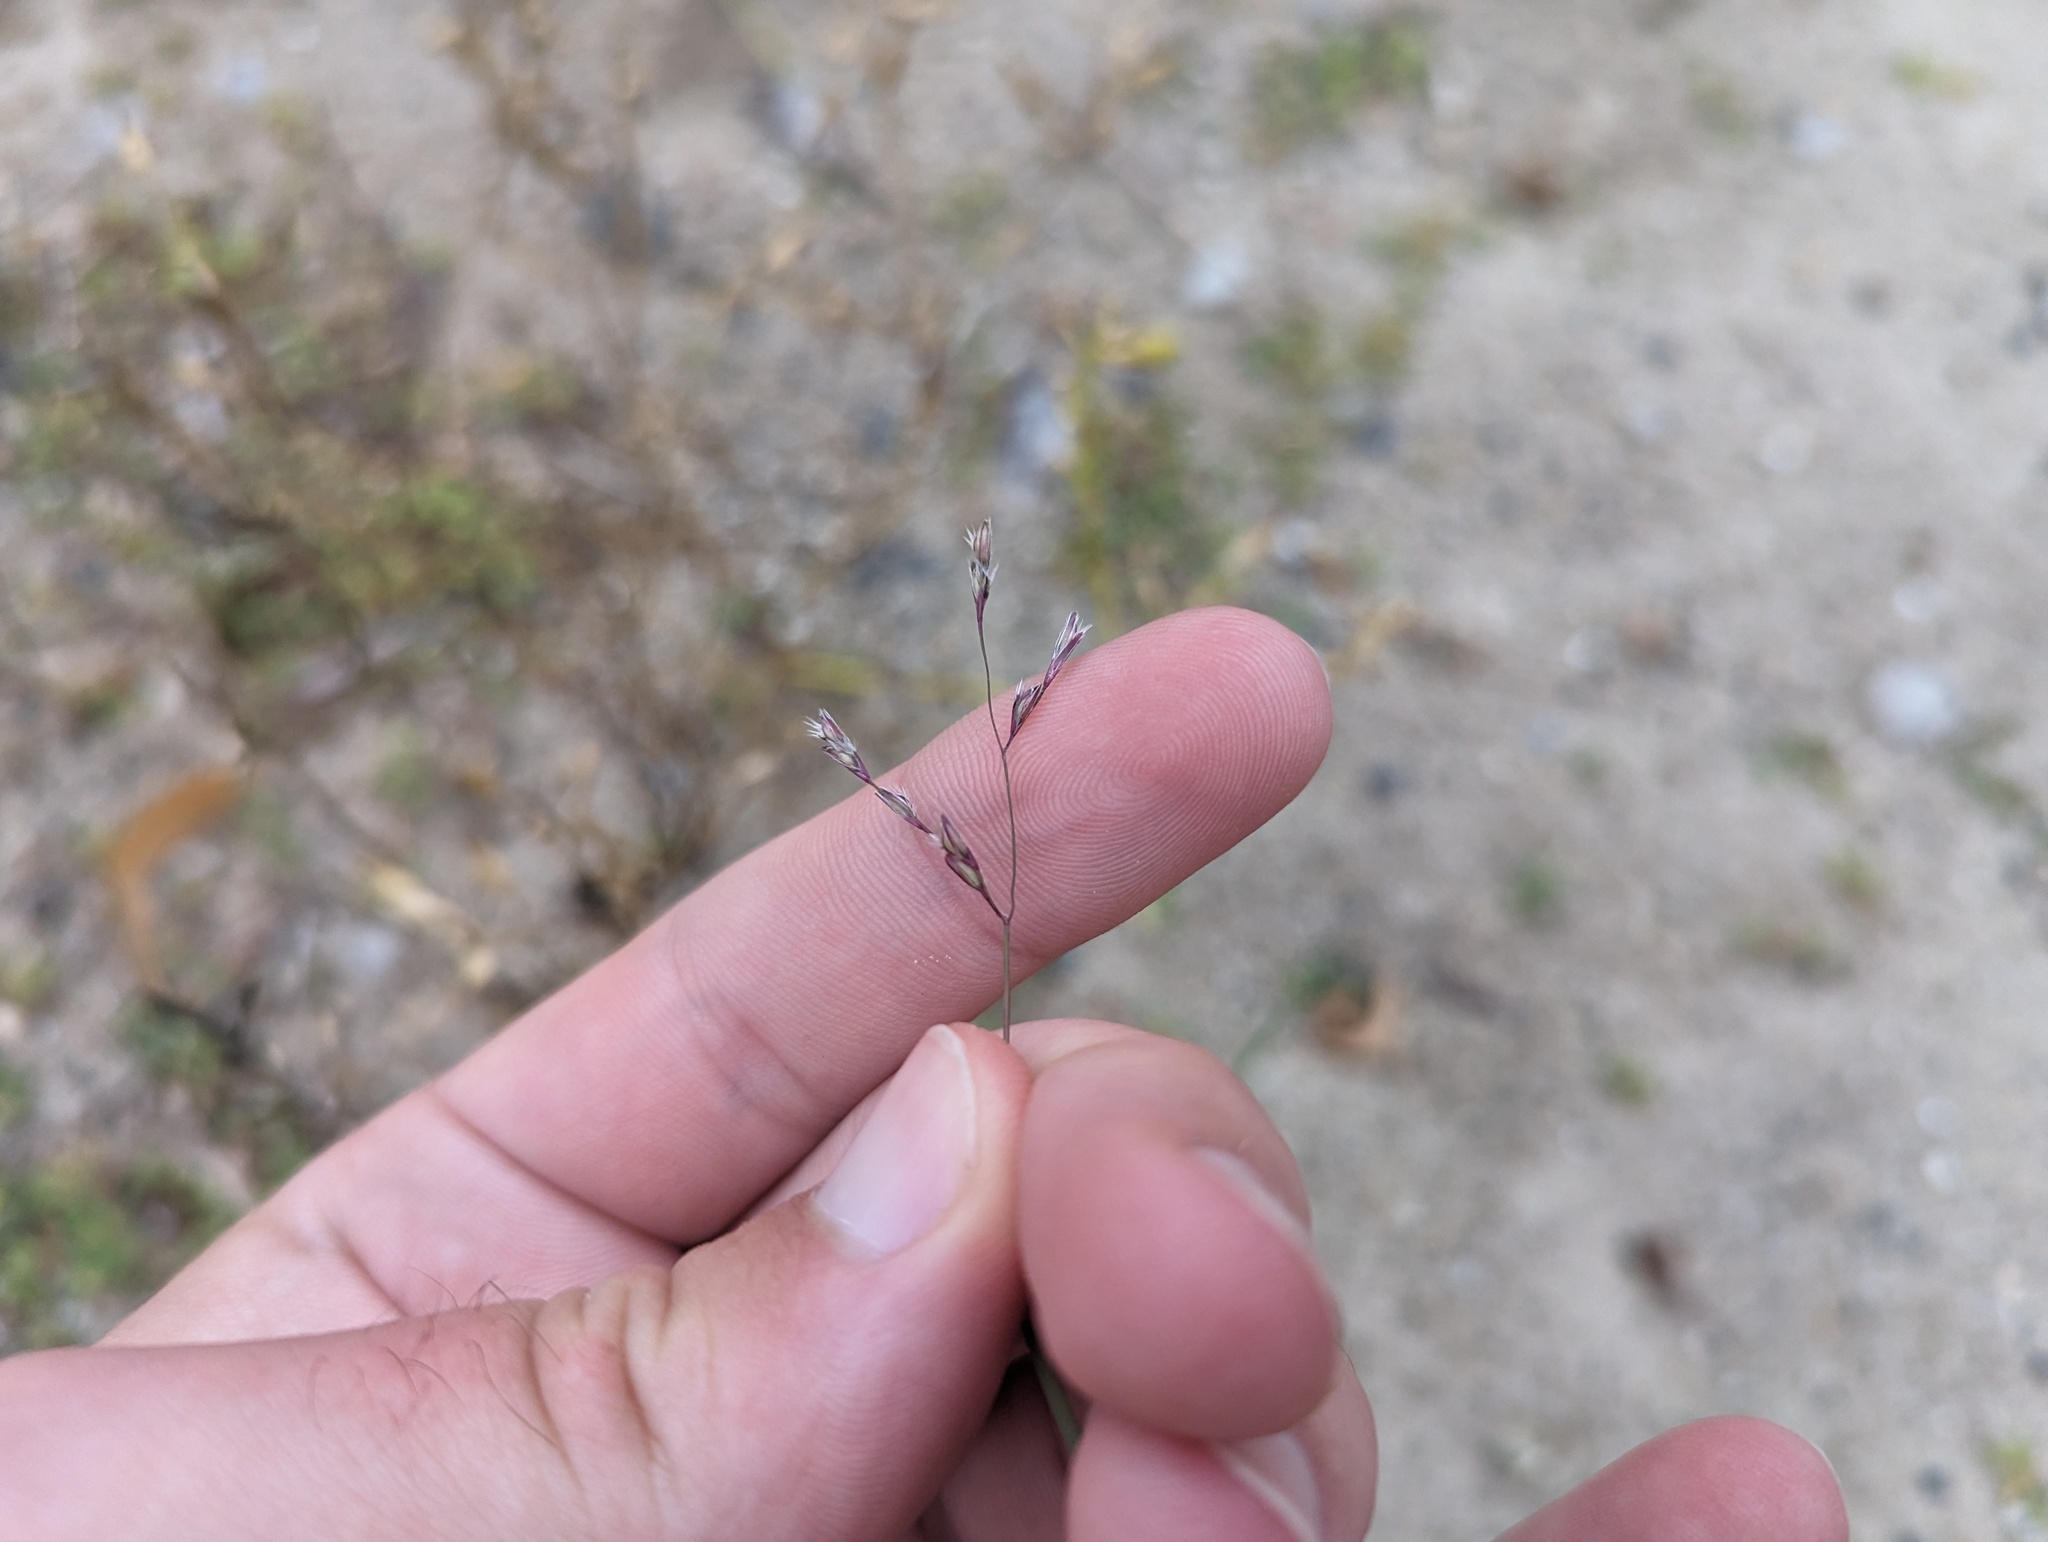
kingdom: Plantae
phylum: Tracheophyta
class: Liliopsida
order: Poales
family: Poaceae
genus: Triplasis
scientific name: Triplasis purpurea
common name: Purple sand grass
